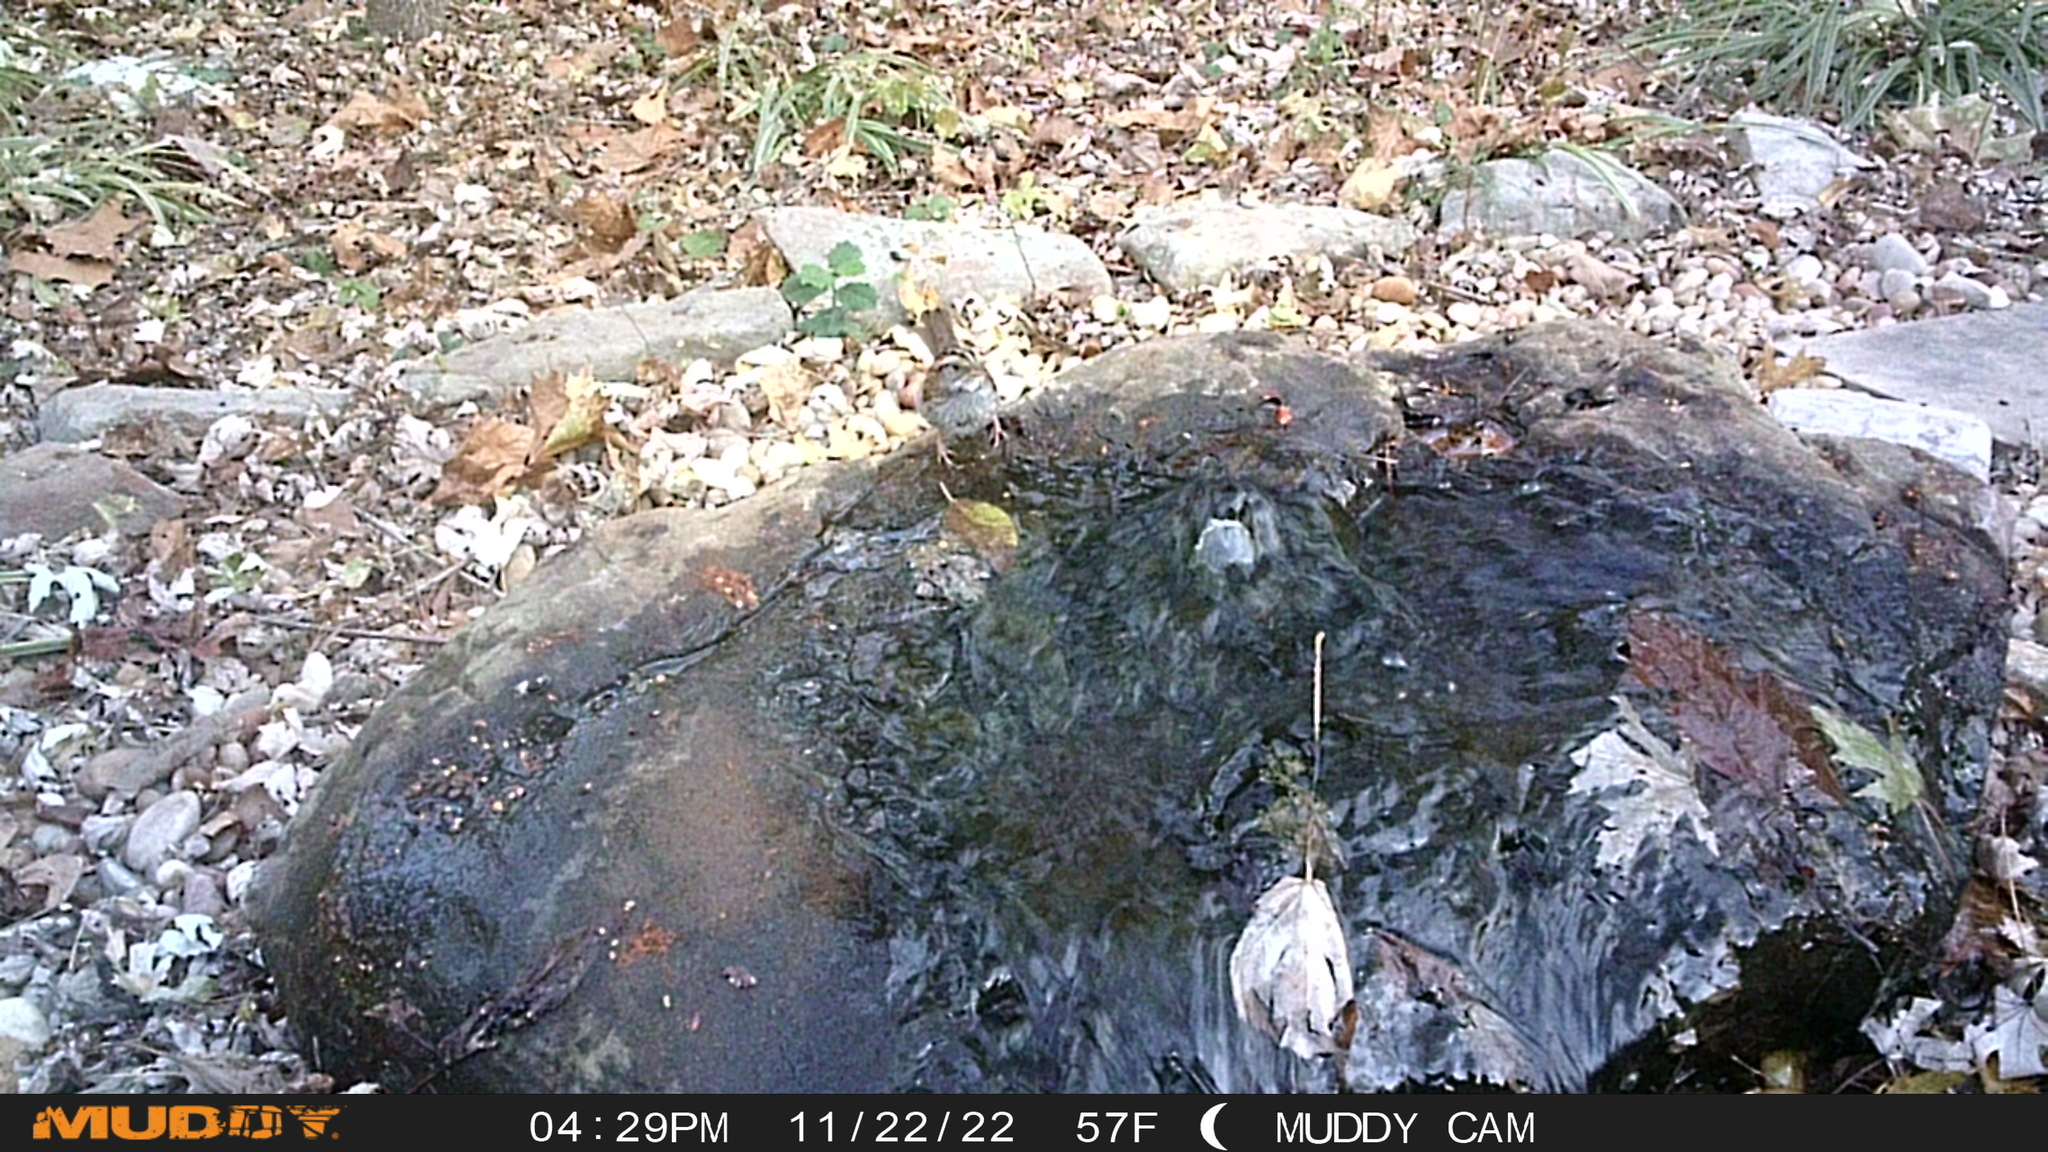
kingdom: Animalia
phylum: Chordata
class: Aves
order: Passeriformes
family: Passerellidae
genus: Zonotrichia
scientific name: Zonotrichia albicollis
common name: White-throated sparrow
